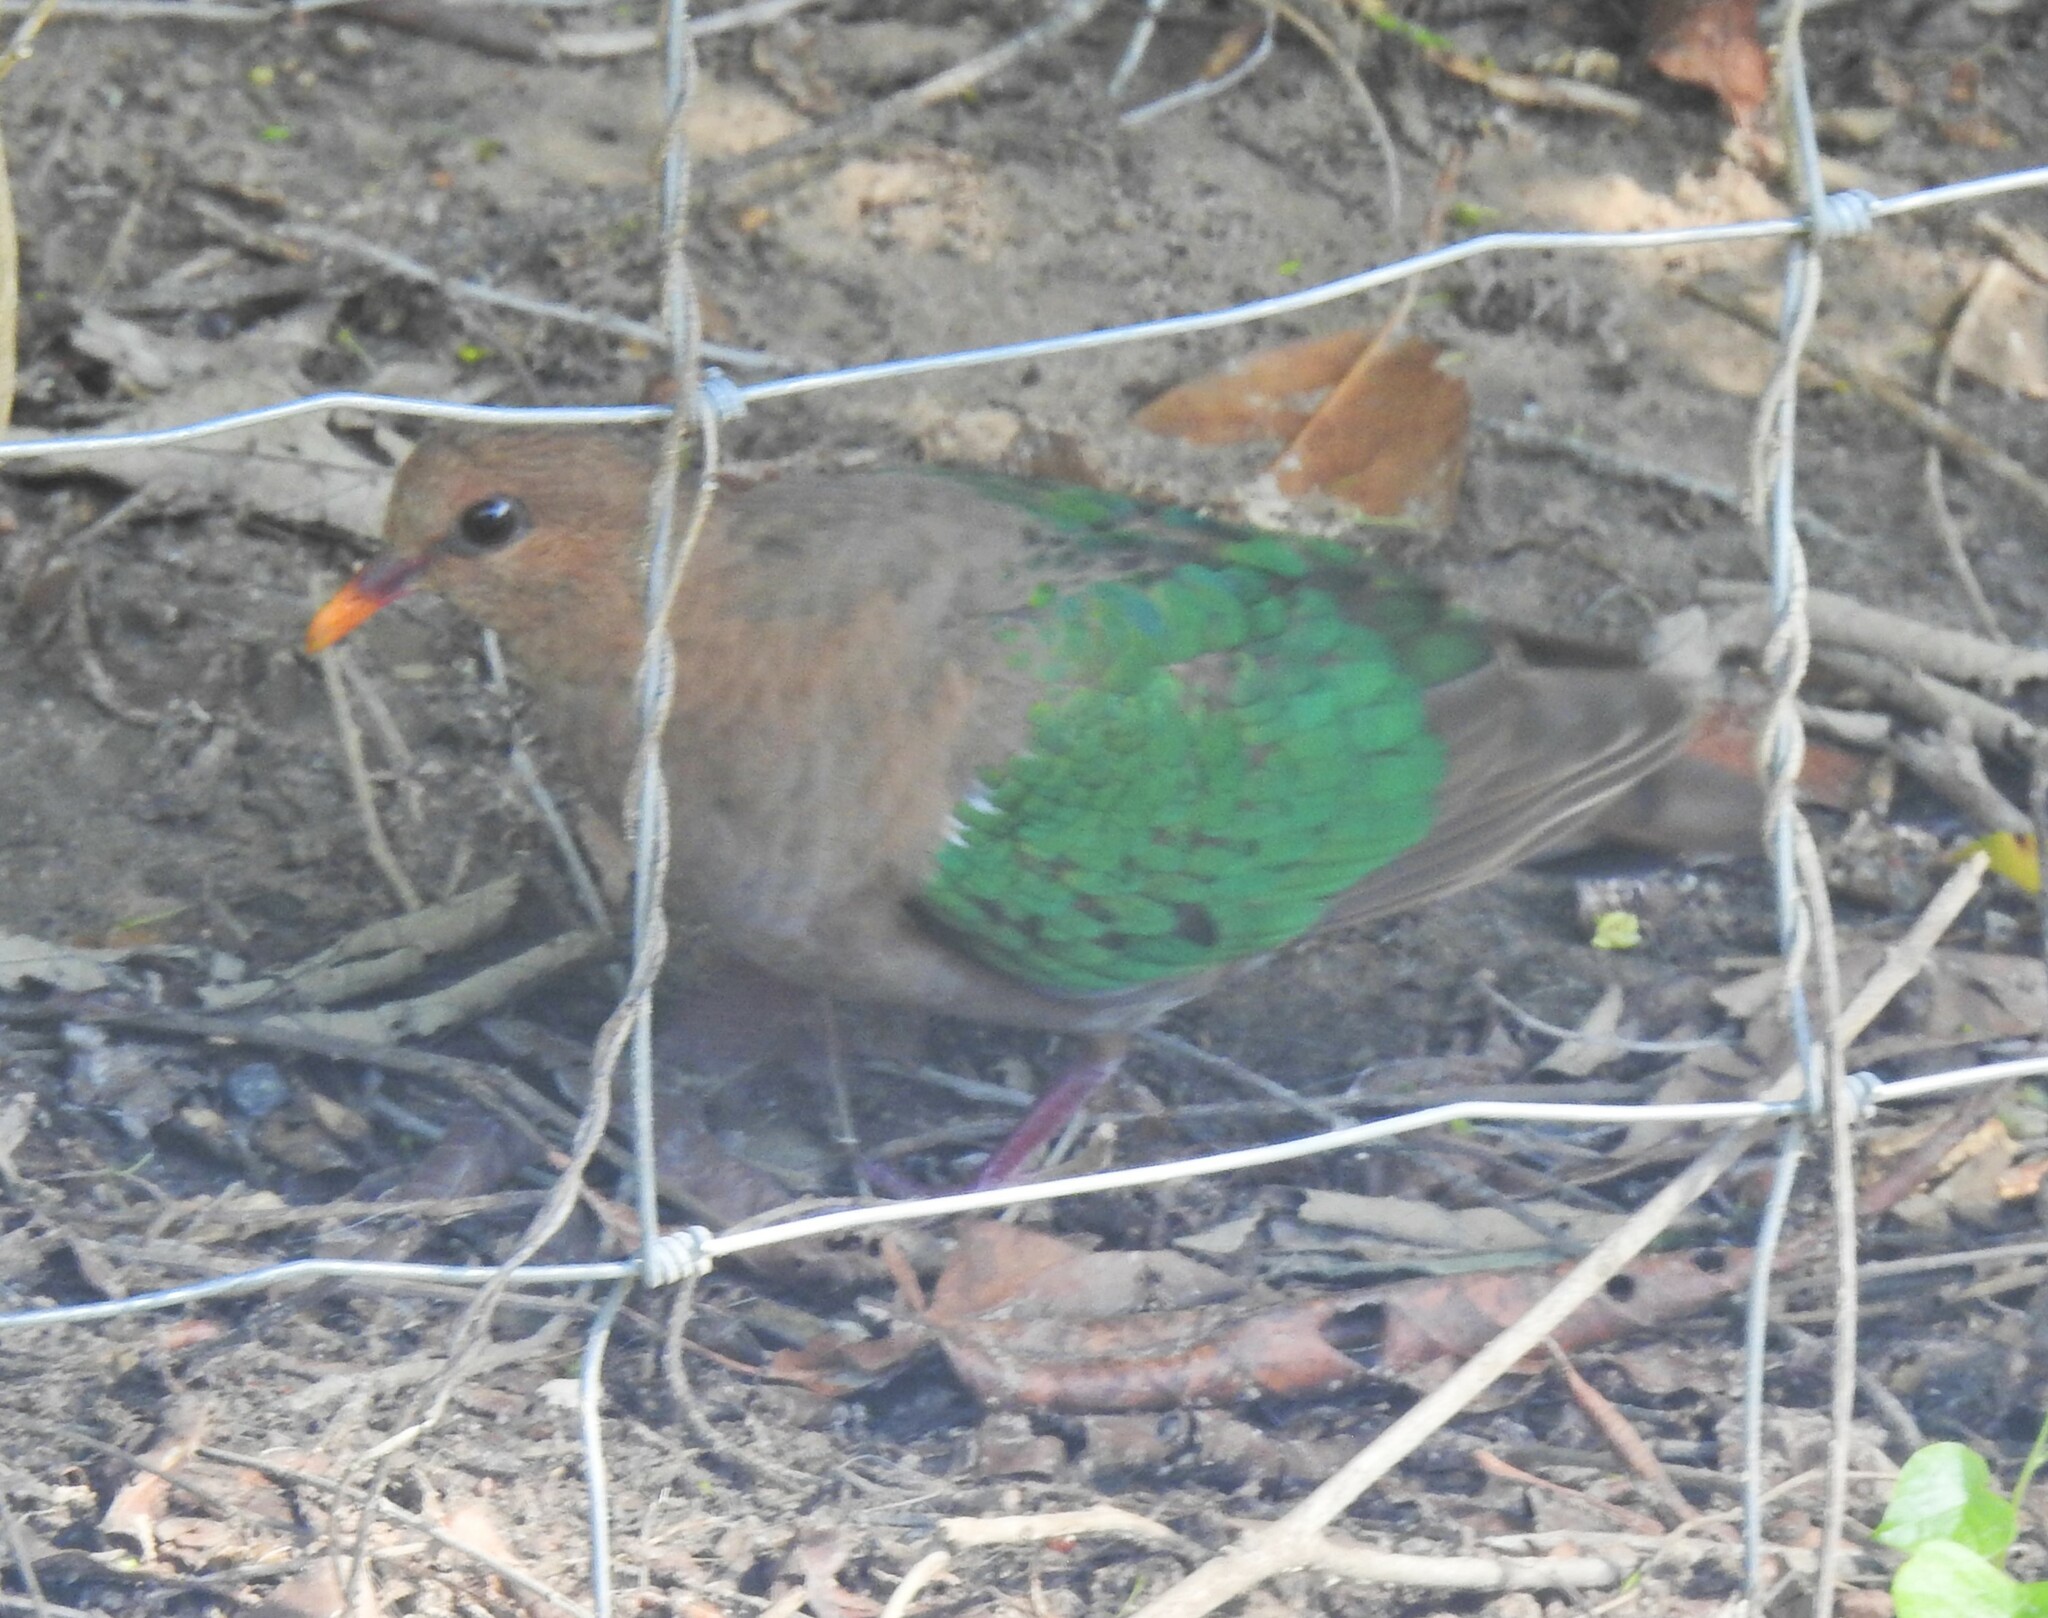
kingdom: Animalia
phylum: Chordata
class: Aves
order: Columbiformes
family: Columbidae
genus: Chalcophaps
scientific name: Chalcophaps longirostris
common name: Pacific emerald dove
